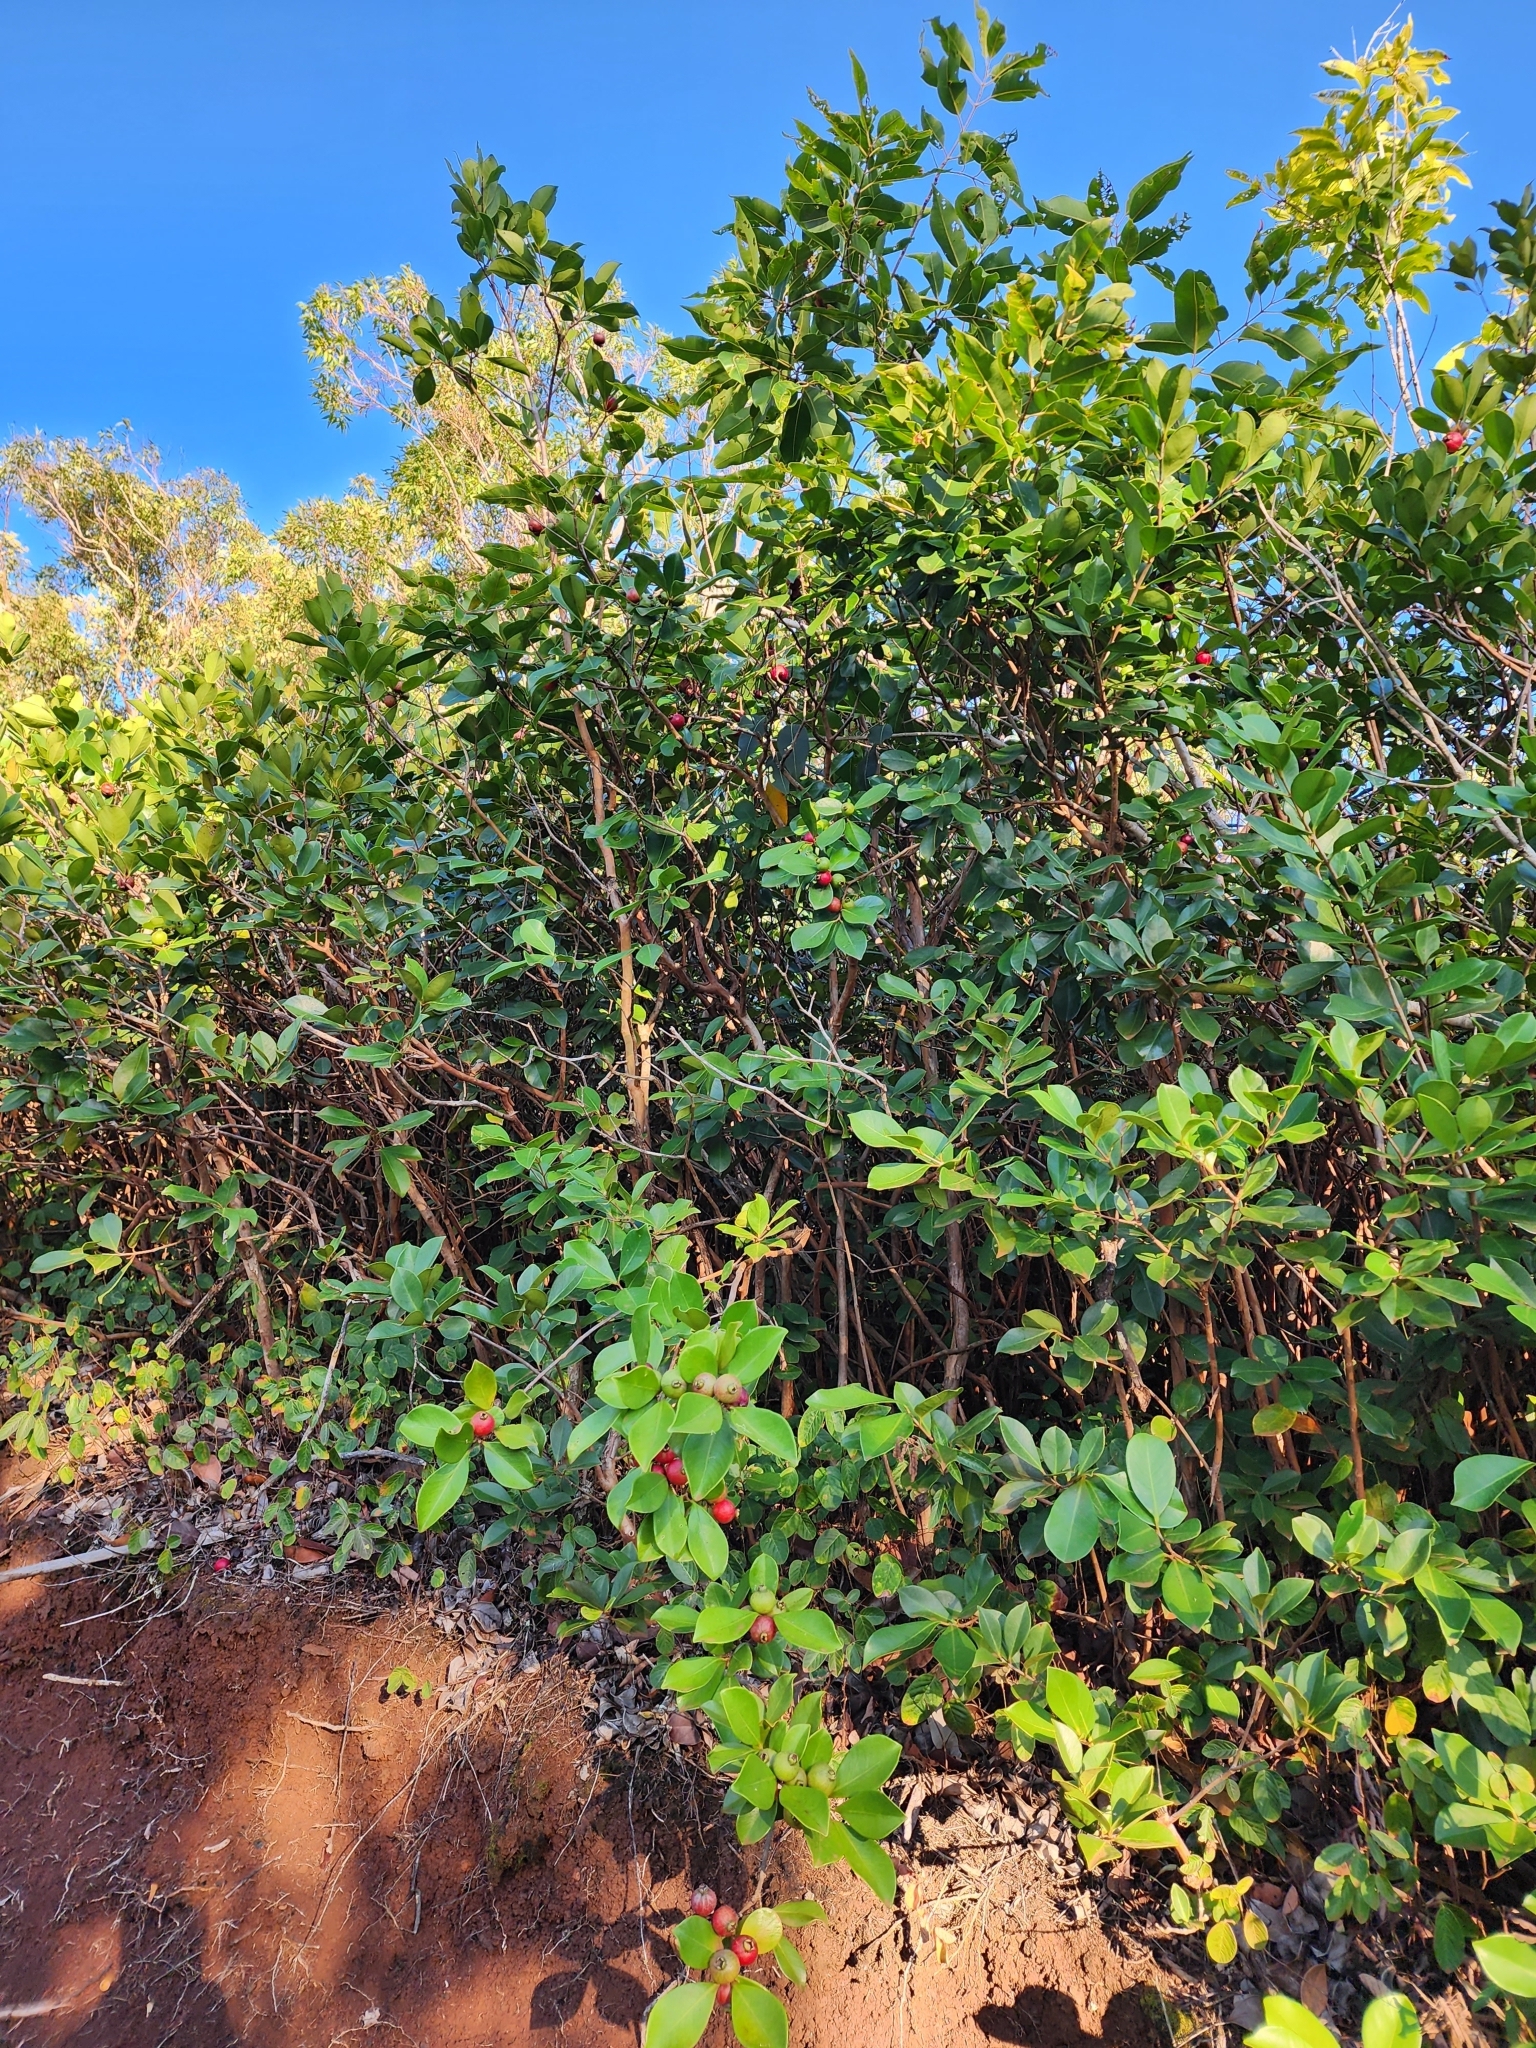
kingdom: Plantae
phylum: Tracheophyta
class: Magnoliopsida
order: Myrtales
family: Myrtaceae
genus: Psidium
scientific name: Psidium cattleianum
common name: Strawberry guava
